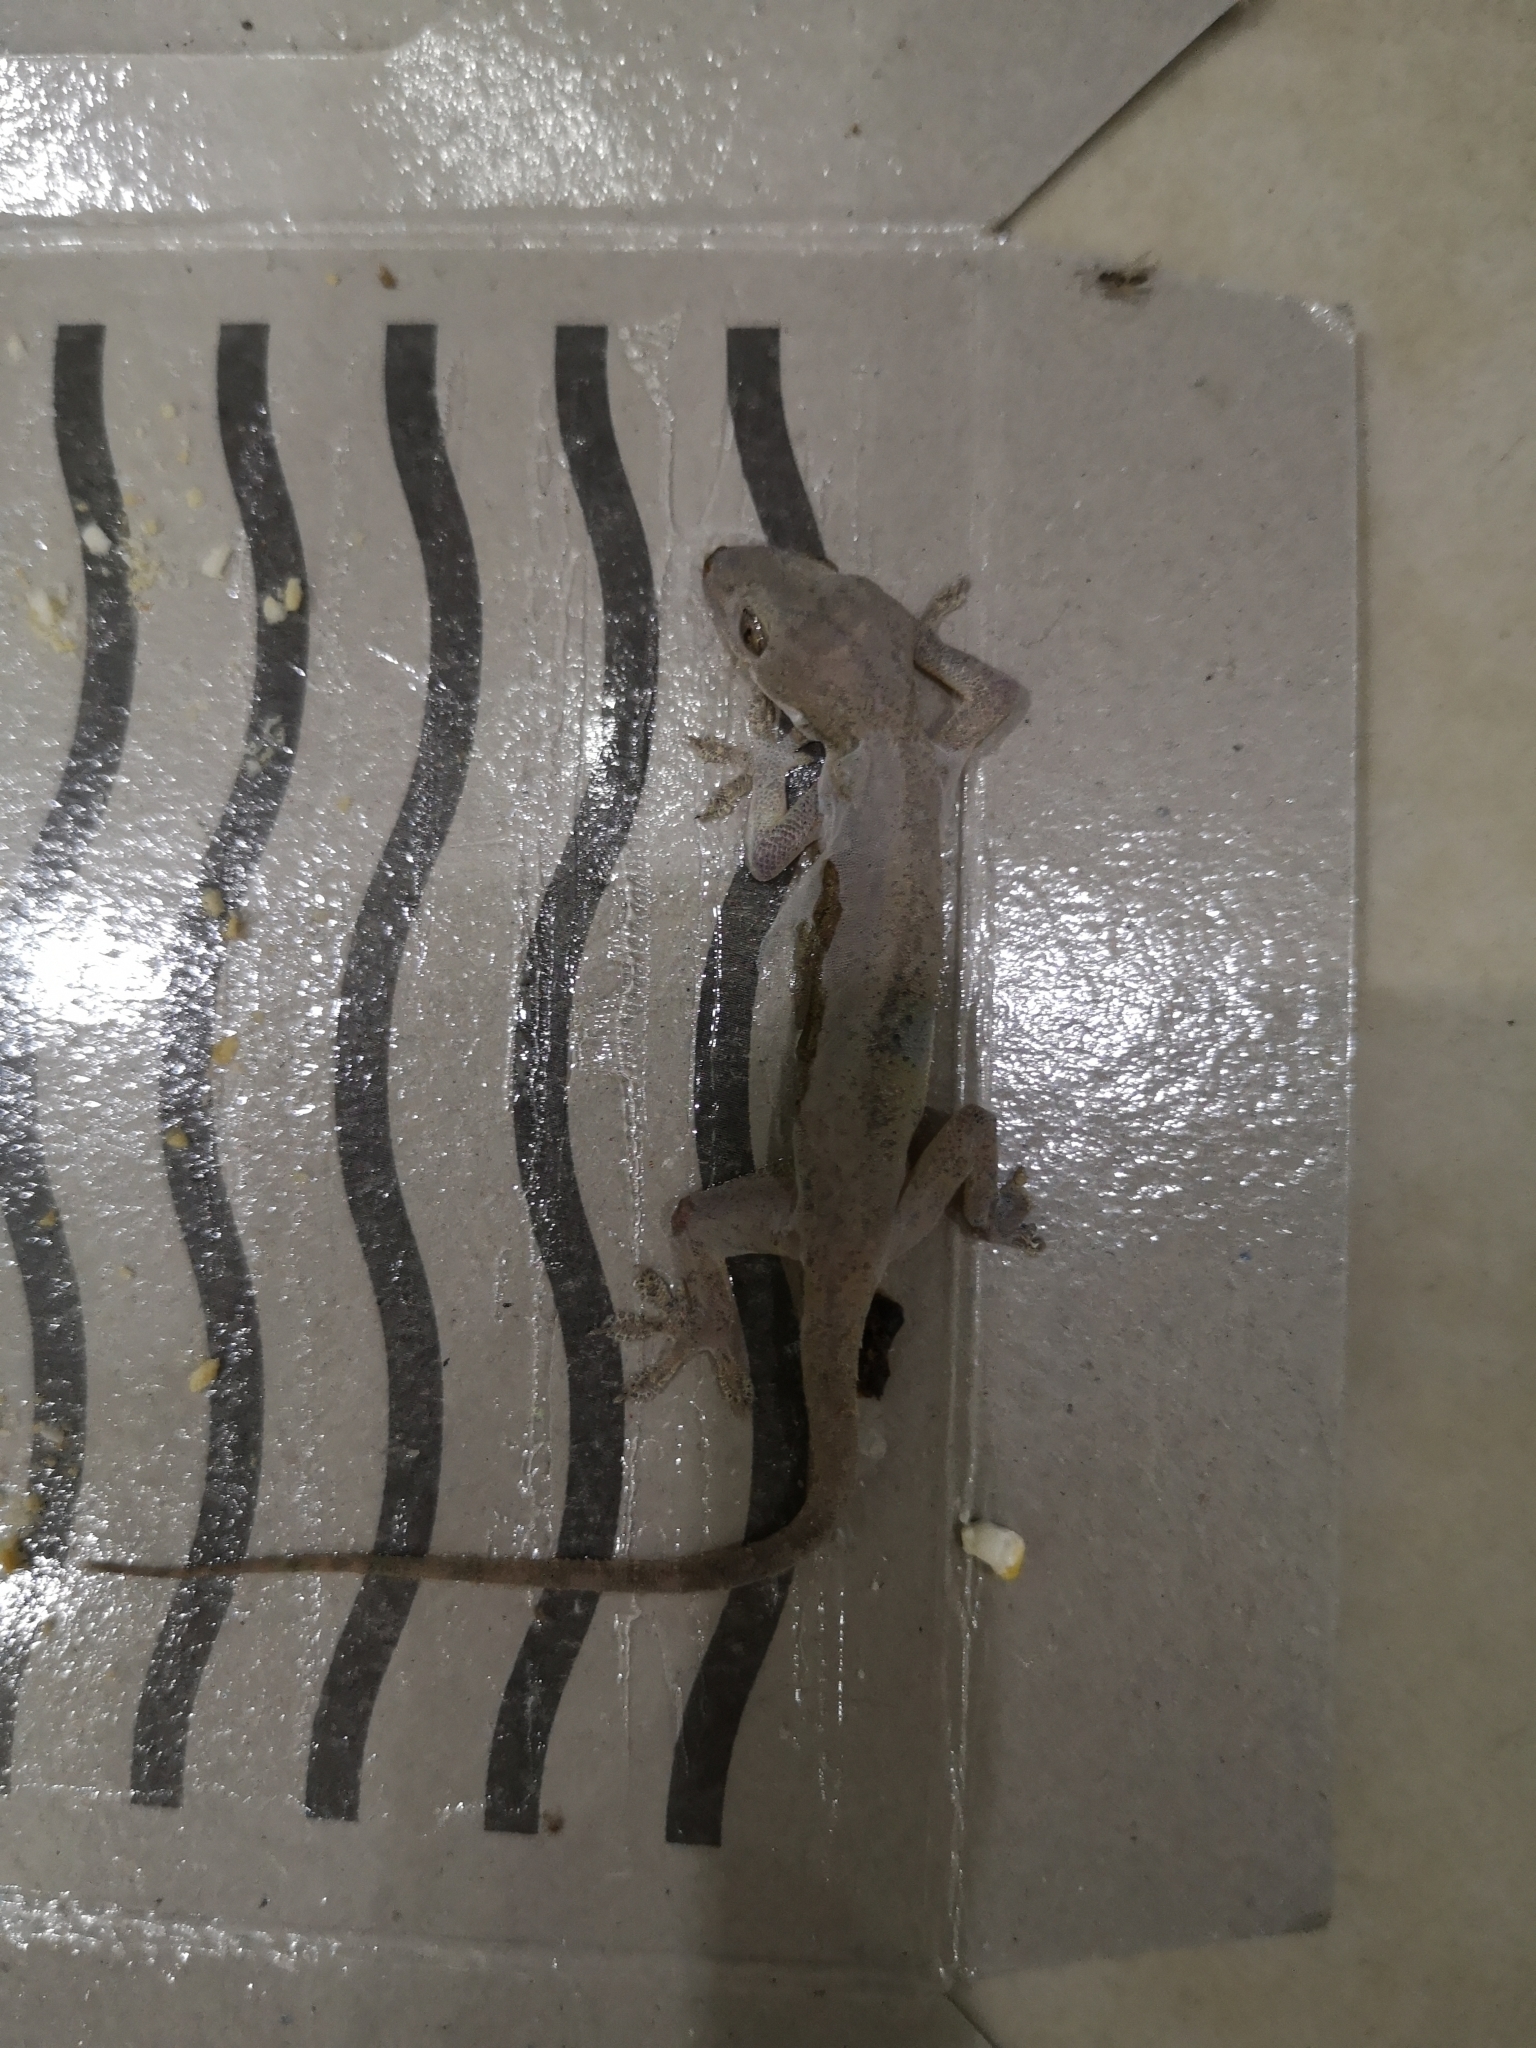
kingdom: Animalia
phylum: Chordata
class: Squamata
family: Gekkonidae
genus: Hemidactylus
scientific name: Hemidactylus frenatus
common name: Common house gecko
